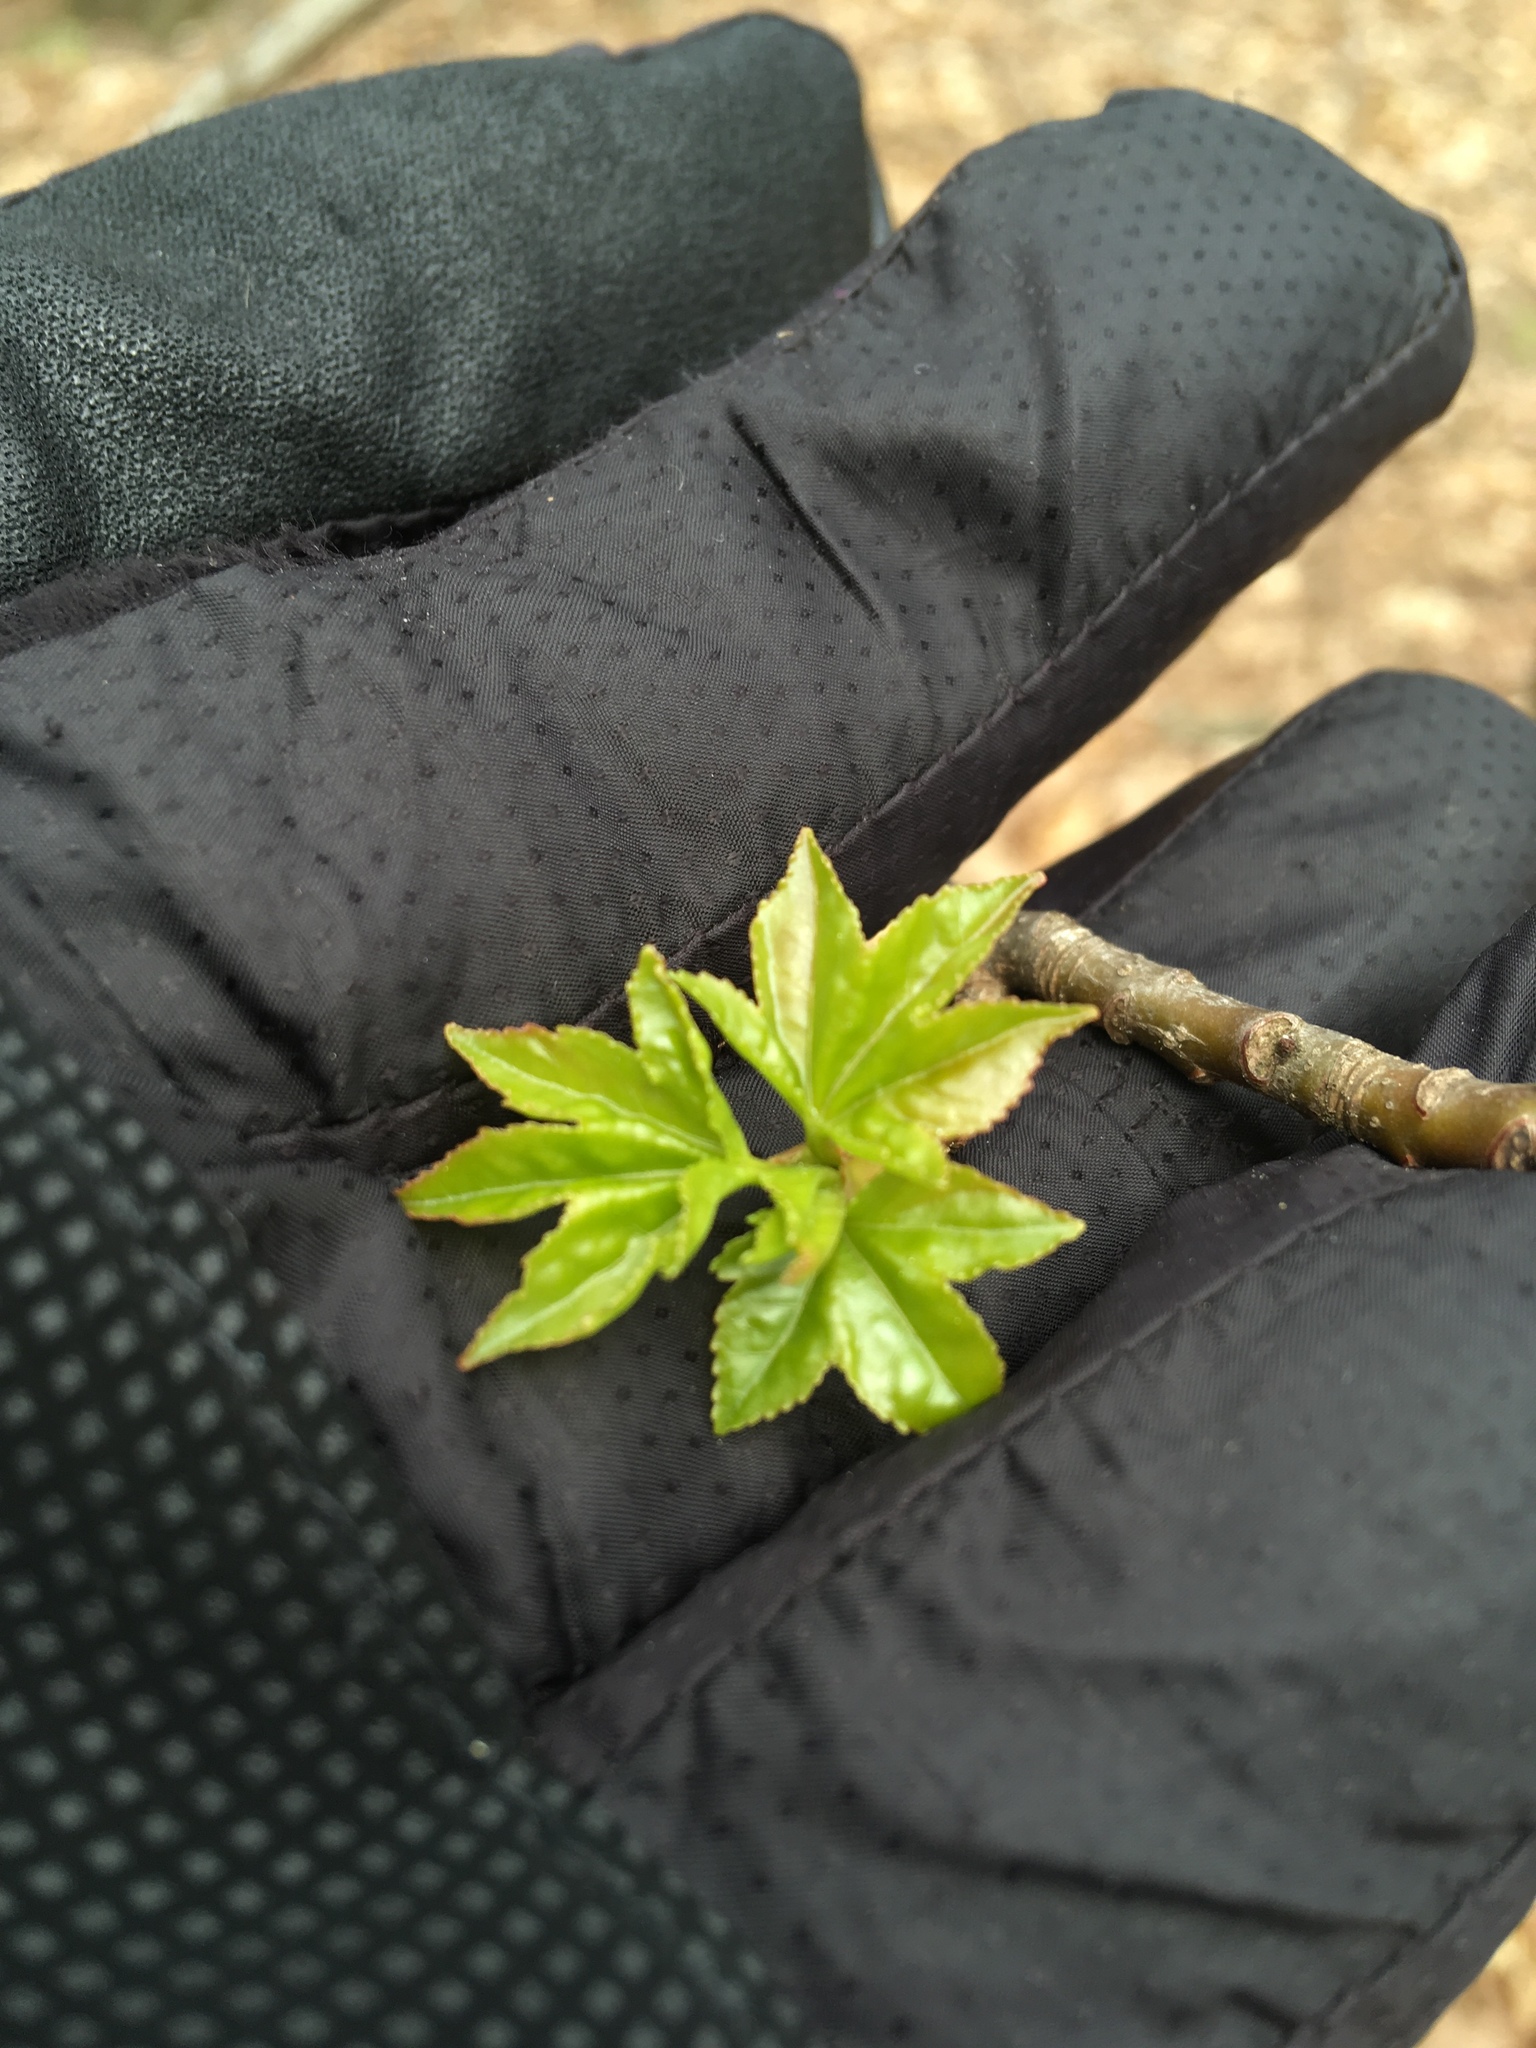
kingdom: Plantae
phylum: Tracheophyta
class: Magnoliopsida
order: Saxifragales
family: Altingiaceae
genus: Liquidambar
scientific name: Liquidambar styraciflua
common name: Sweet gum
